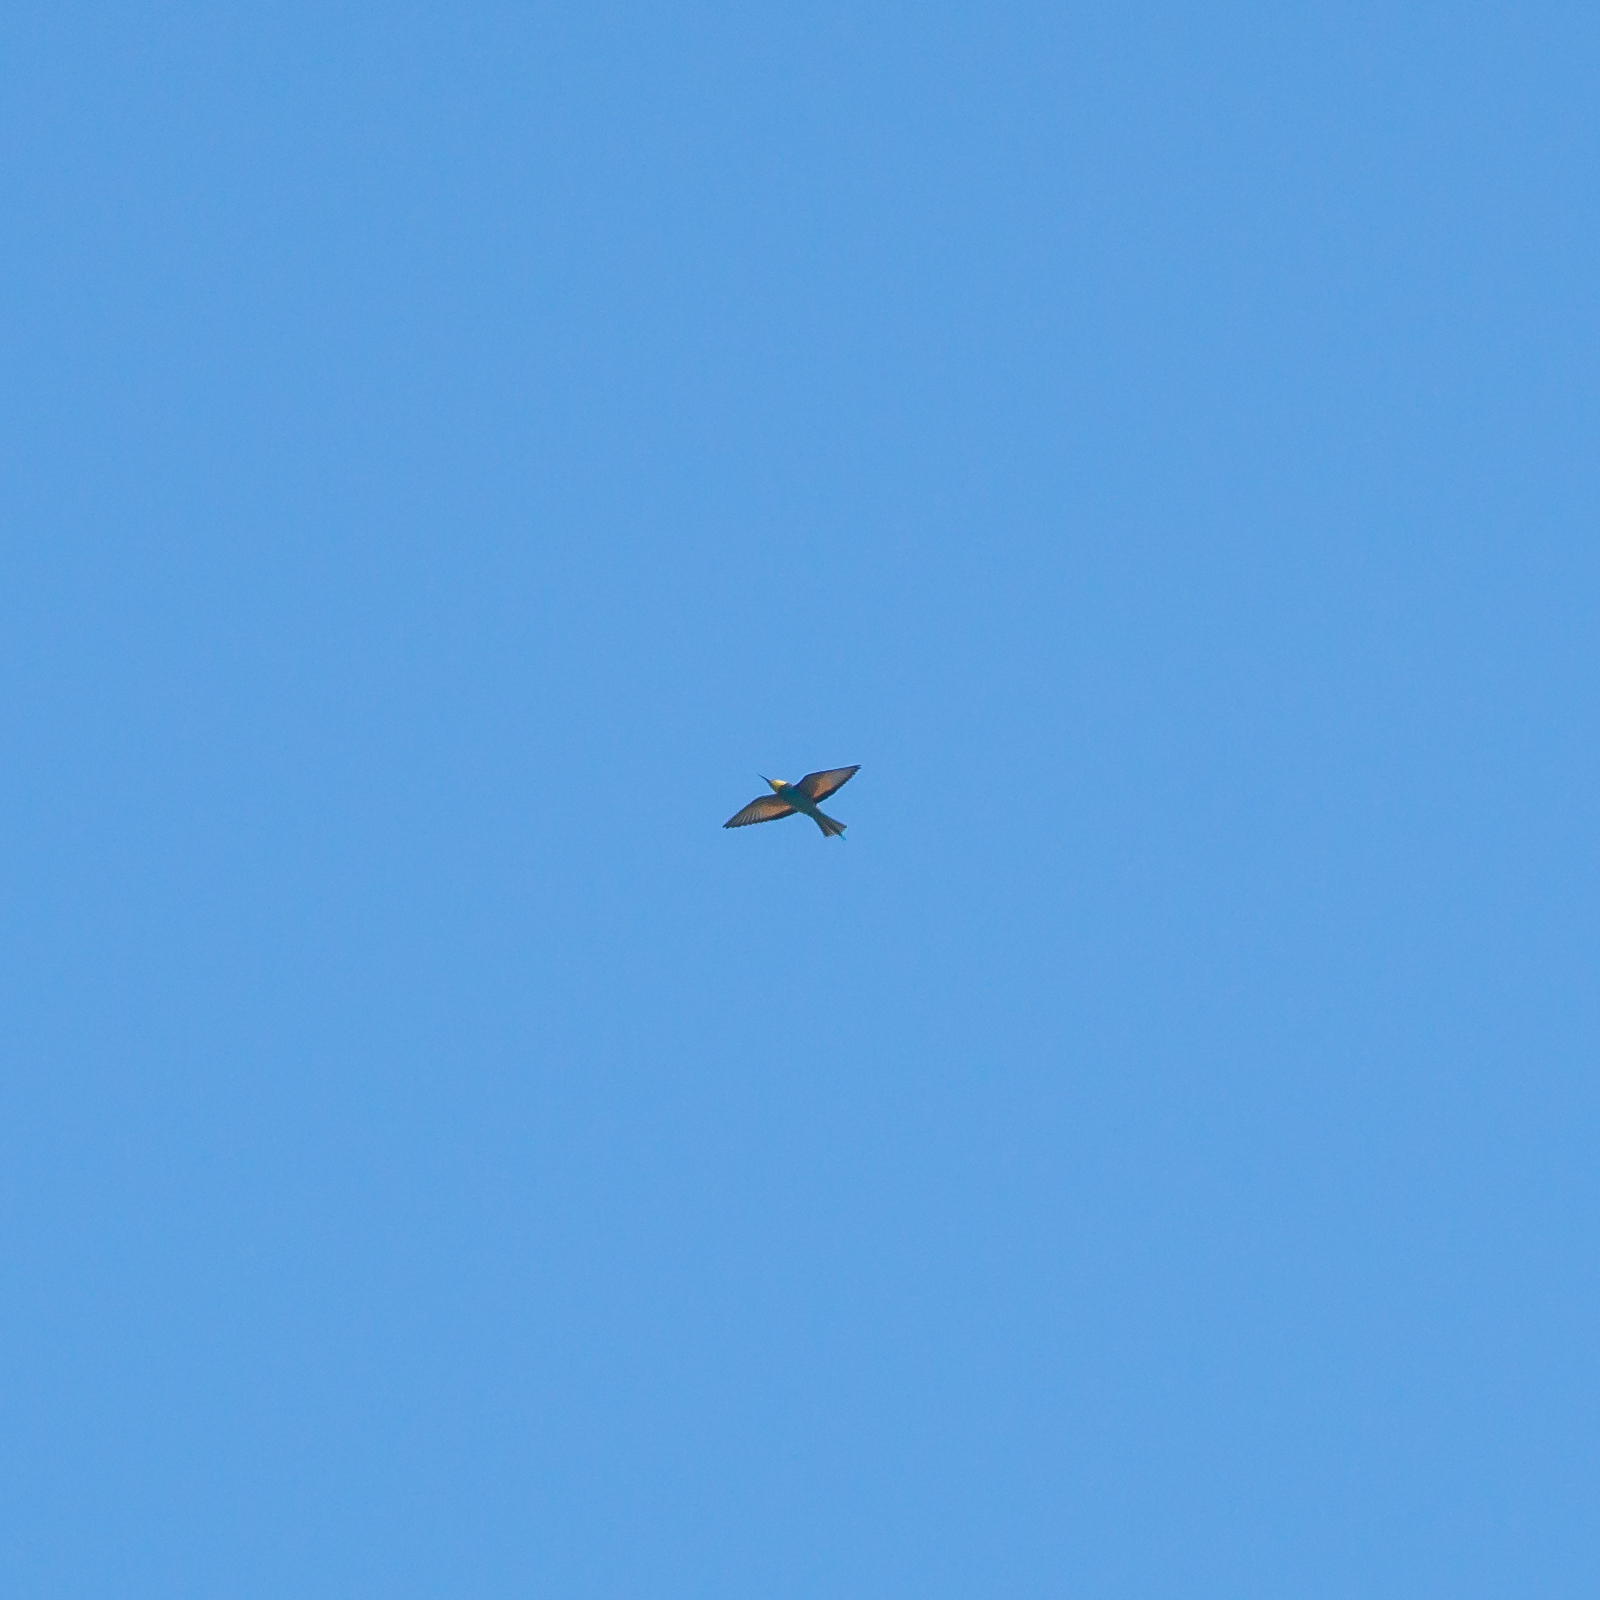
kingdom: Animalia
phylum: Chordata
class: Aves
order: Coraciiformes
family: Meropidae
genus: Merops
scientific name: Merops apiaster
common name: European bee-eater
